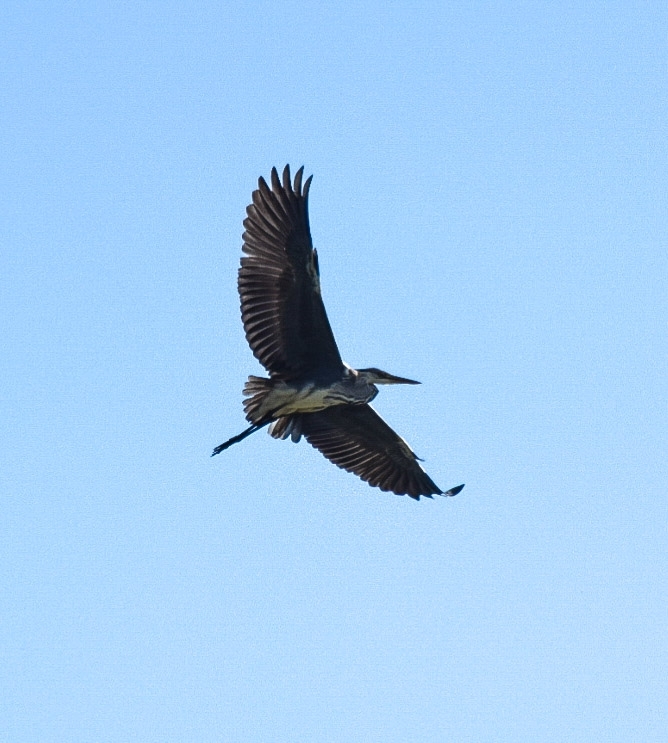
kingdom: Animalia
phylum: Chordata
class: Aves
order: Pelecaniformes
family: Ardeidae
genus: Ardea
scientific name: Ardea cinerea
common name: Grey heron
